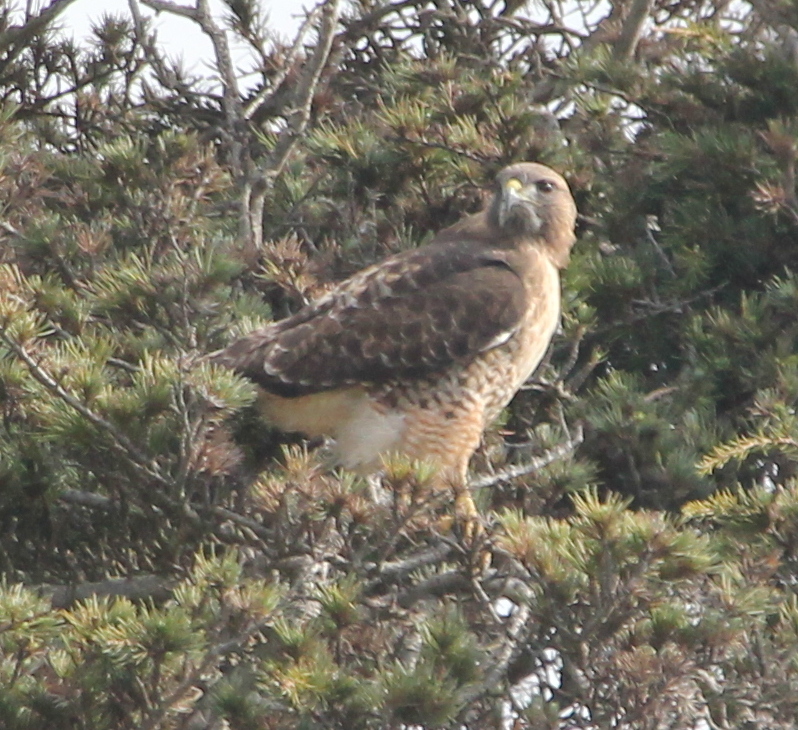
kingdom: Animalia
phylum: Chordata
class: Aves
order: Accipitriformes
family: Accipitridae
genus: Buteo
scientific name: Buteo jamaicensis
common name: Red-tailed hawk
